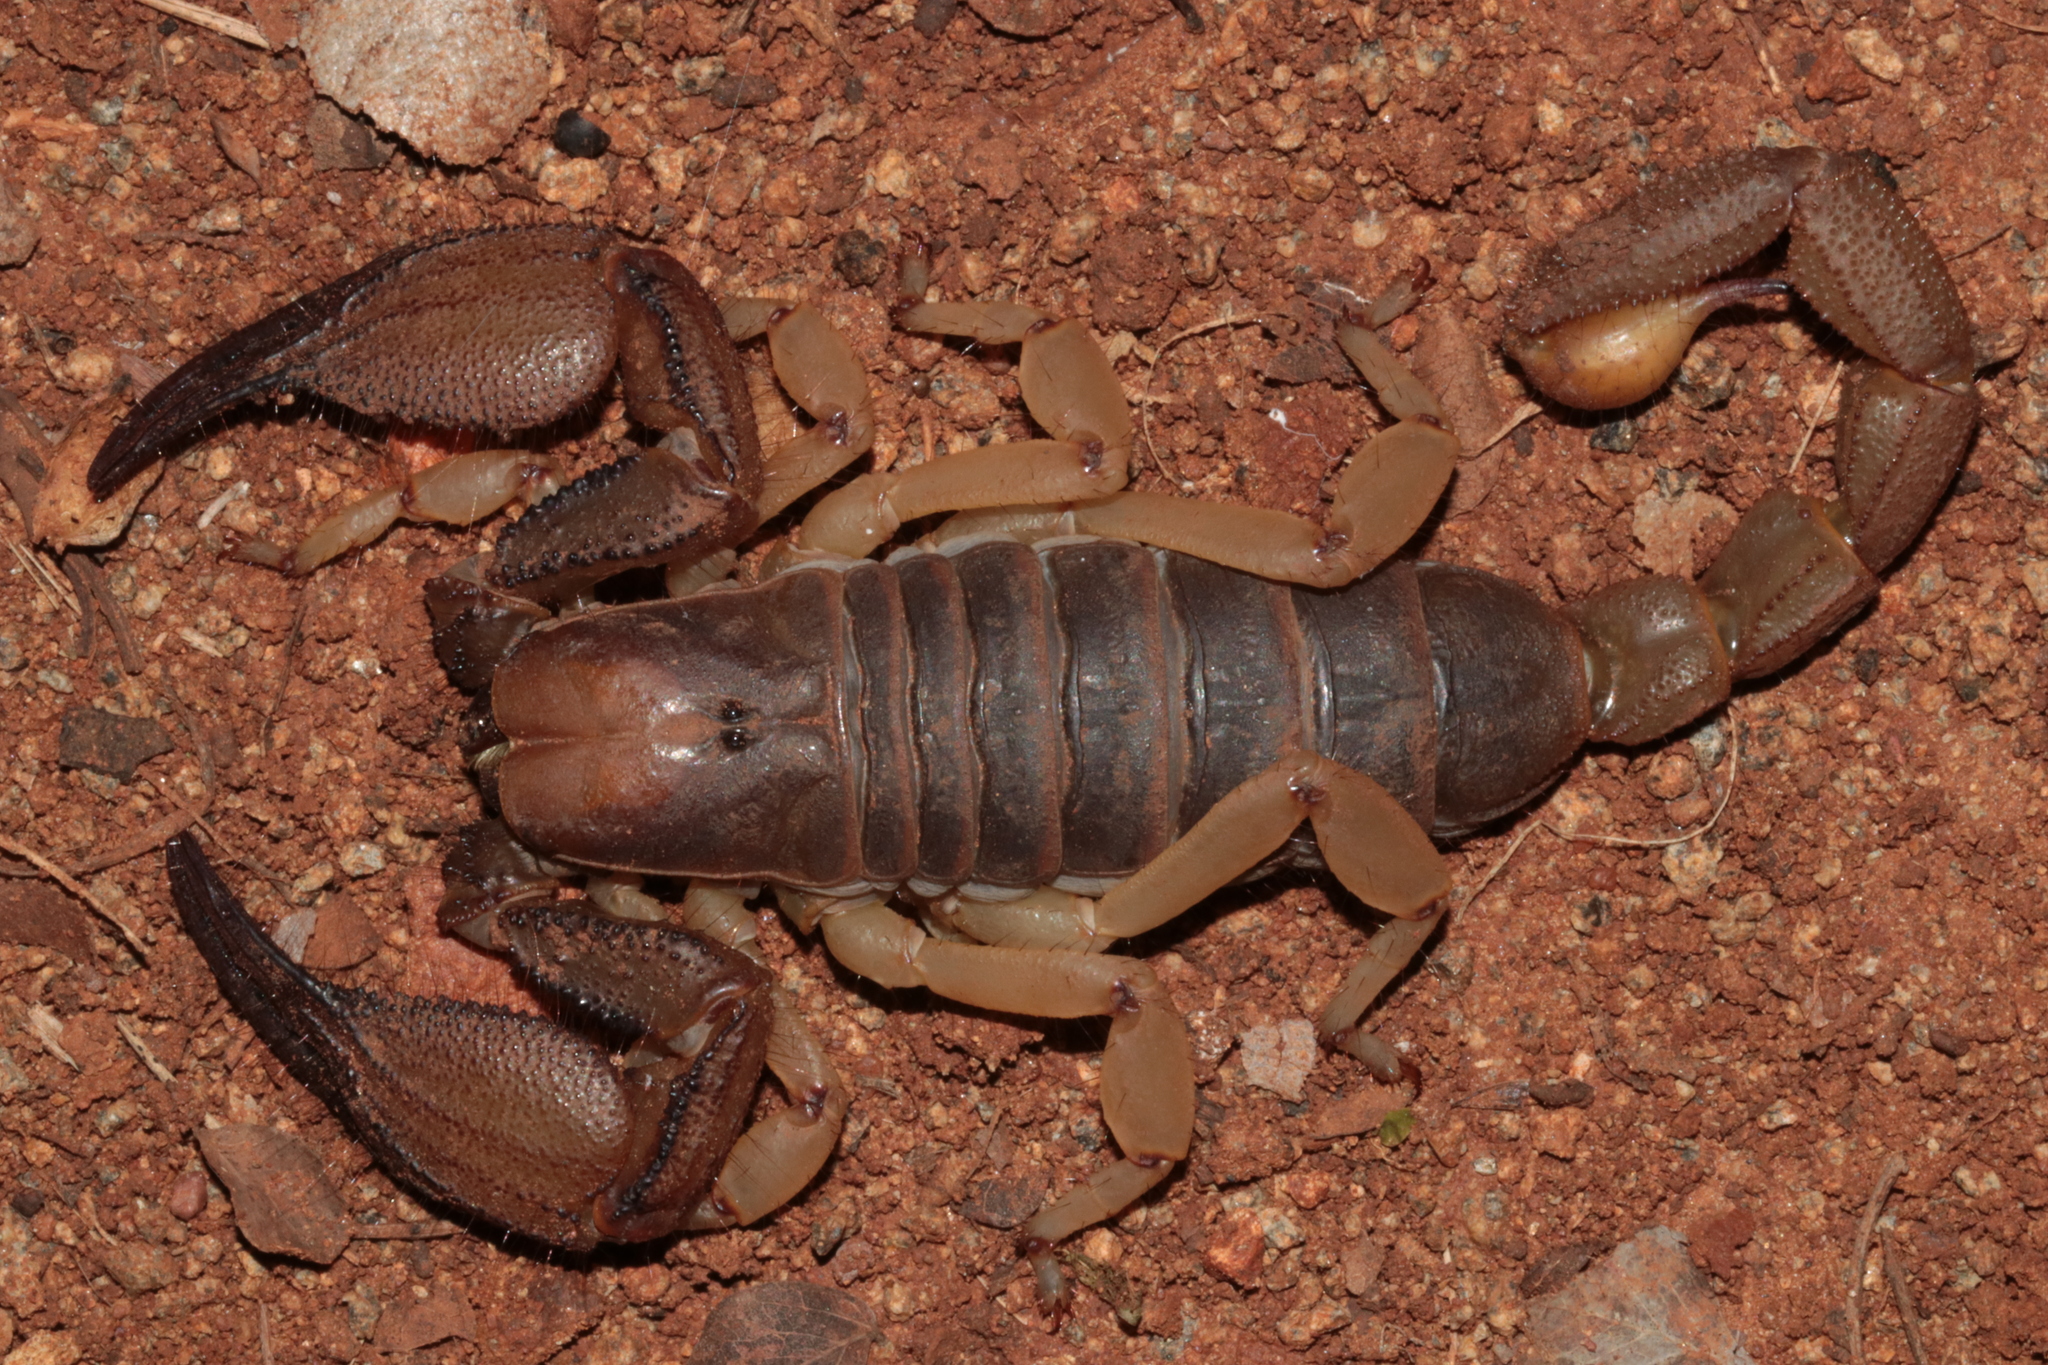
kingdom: Animalia
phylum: Arthropoda
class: Arachnida
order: Scorpiones
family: Scorpionidae
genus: Opistophthalmus
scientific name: Opistophthalmus glabrifrons
